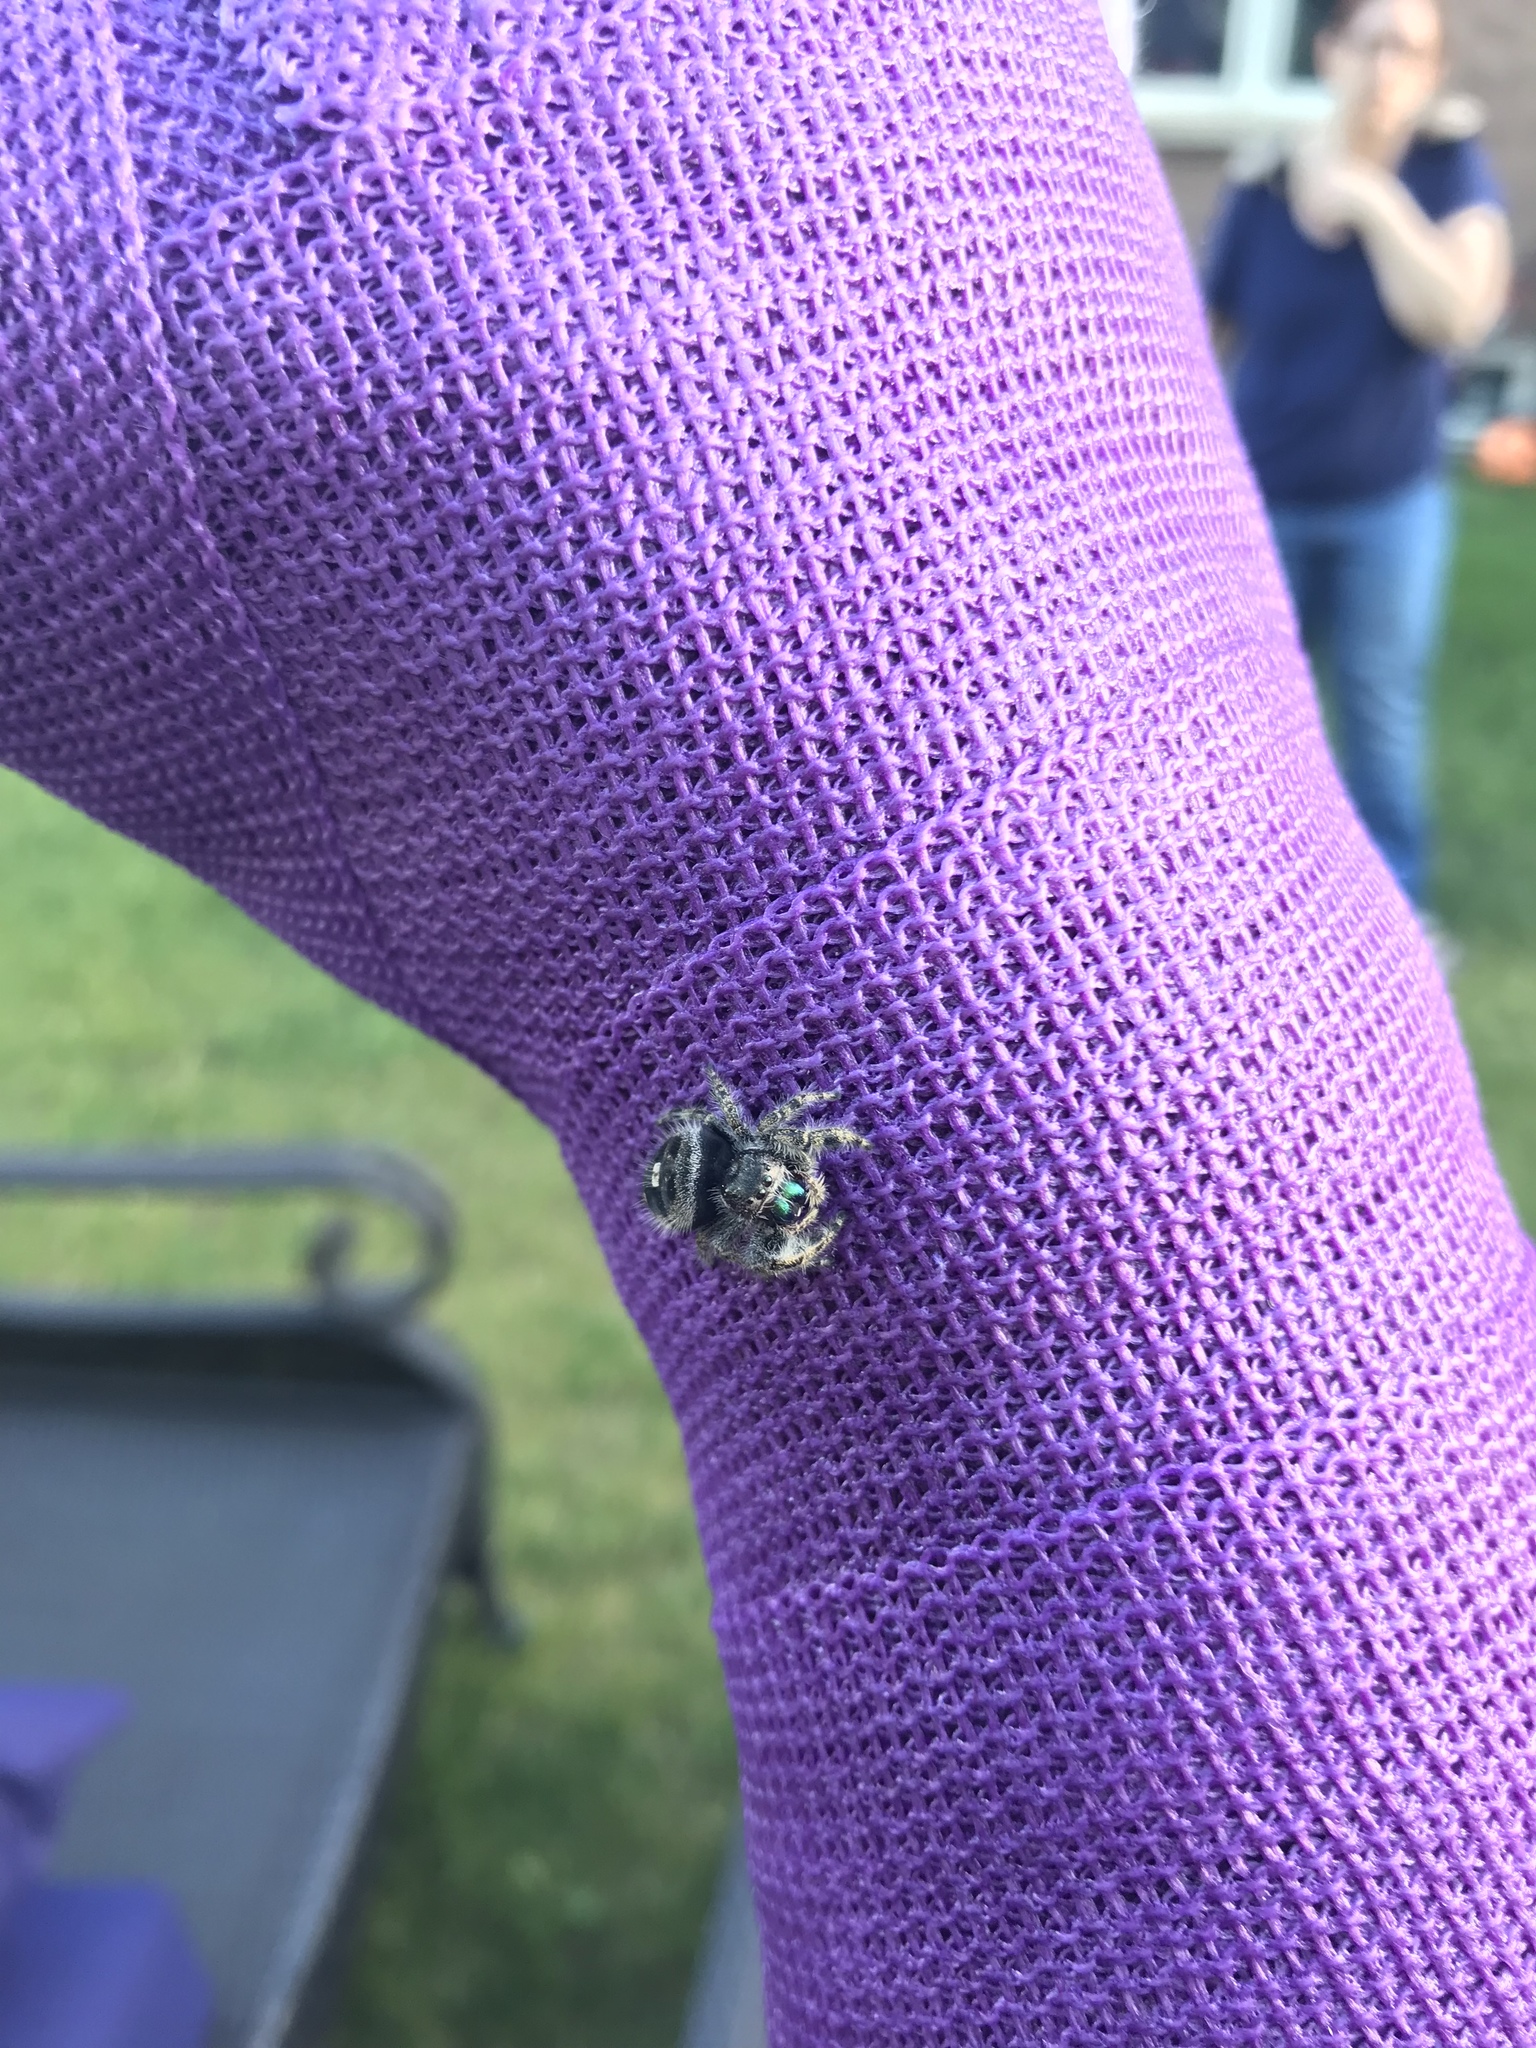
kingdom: Animalia
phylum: Arthropoda
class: Arachnida
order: Araneae
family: Salticidae
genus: Phidippus
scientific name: Phidippus audax
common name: Bold jumper
